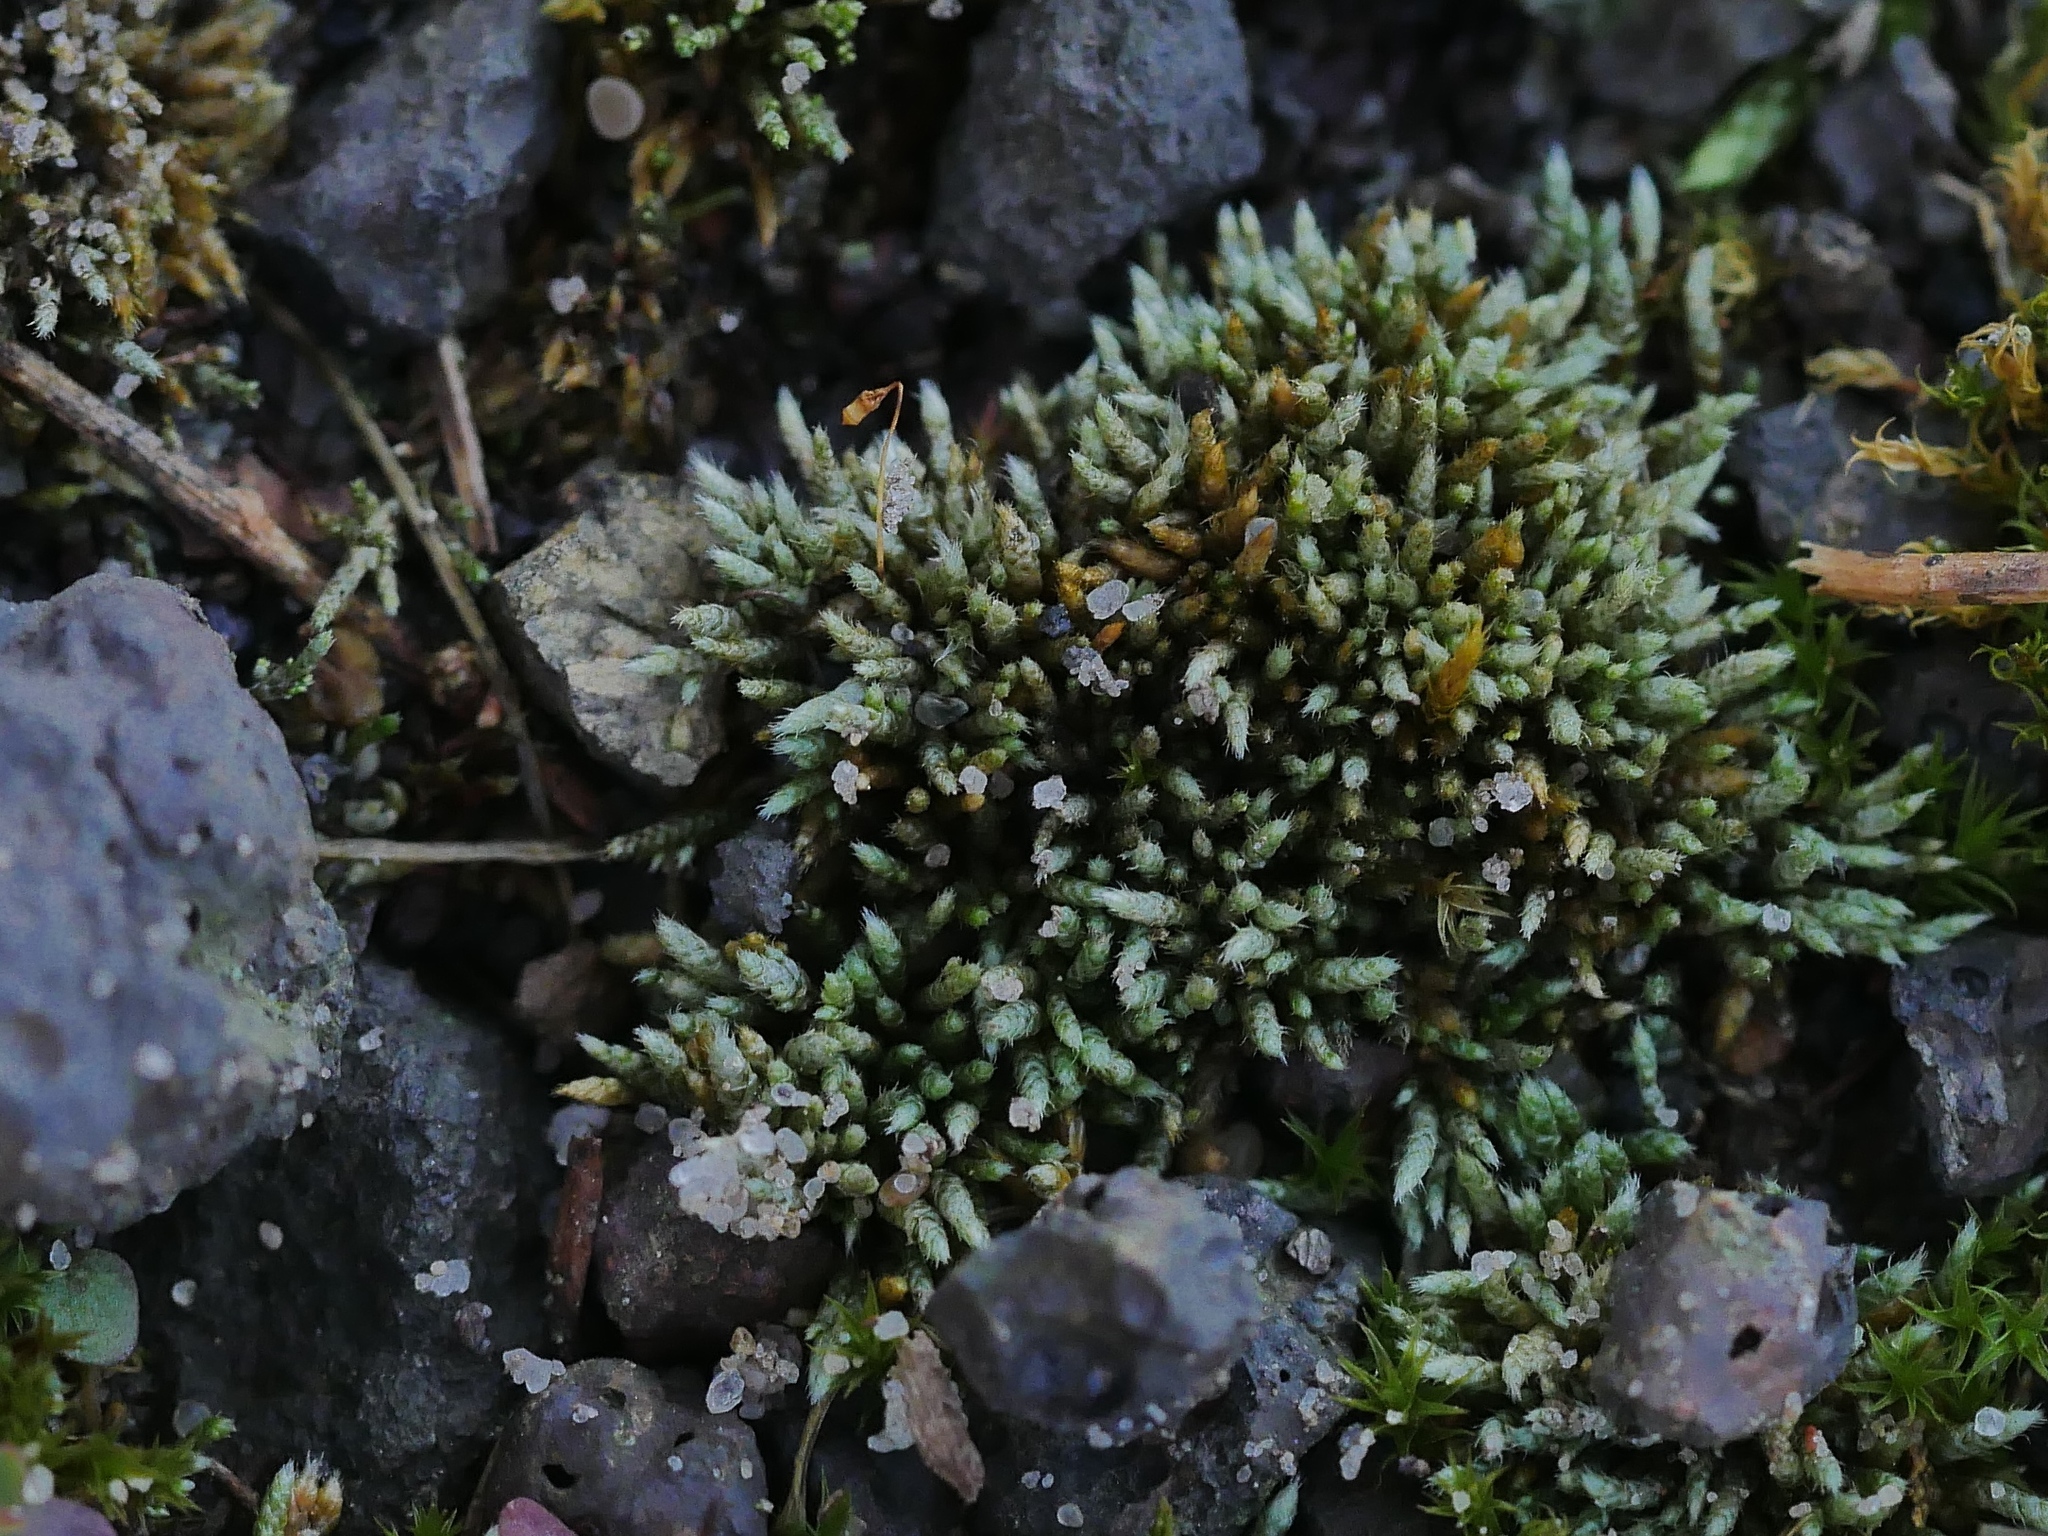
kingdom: Plantae
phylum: Bryophyta
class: Bryopsida
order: Bryales
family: Bryaceae
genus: Bryum
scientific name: Bryum argenteum
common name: Silver-moss
